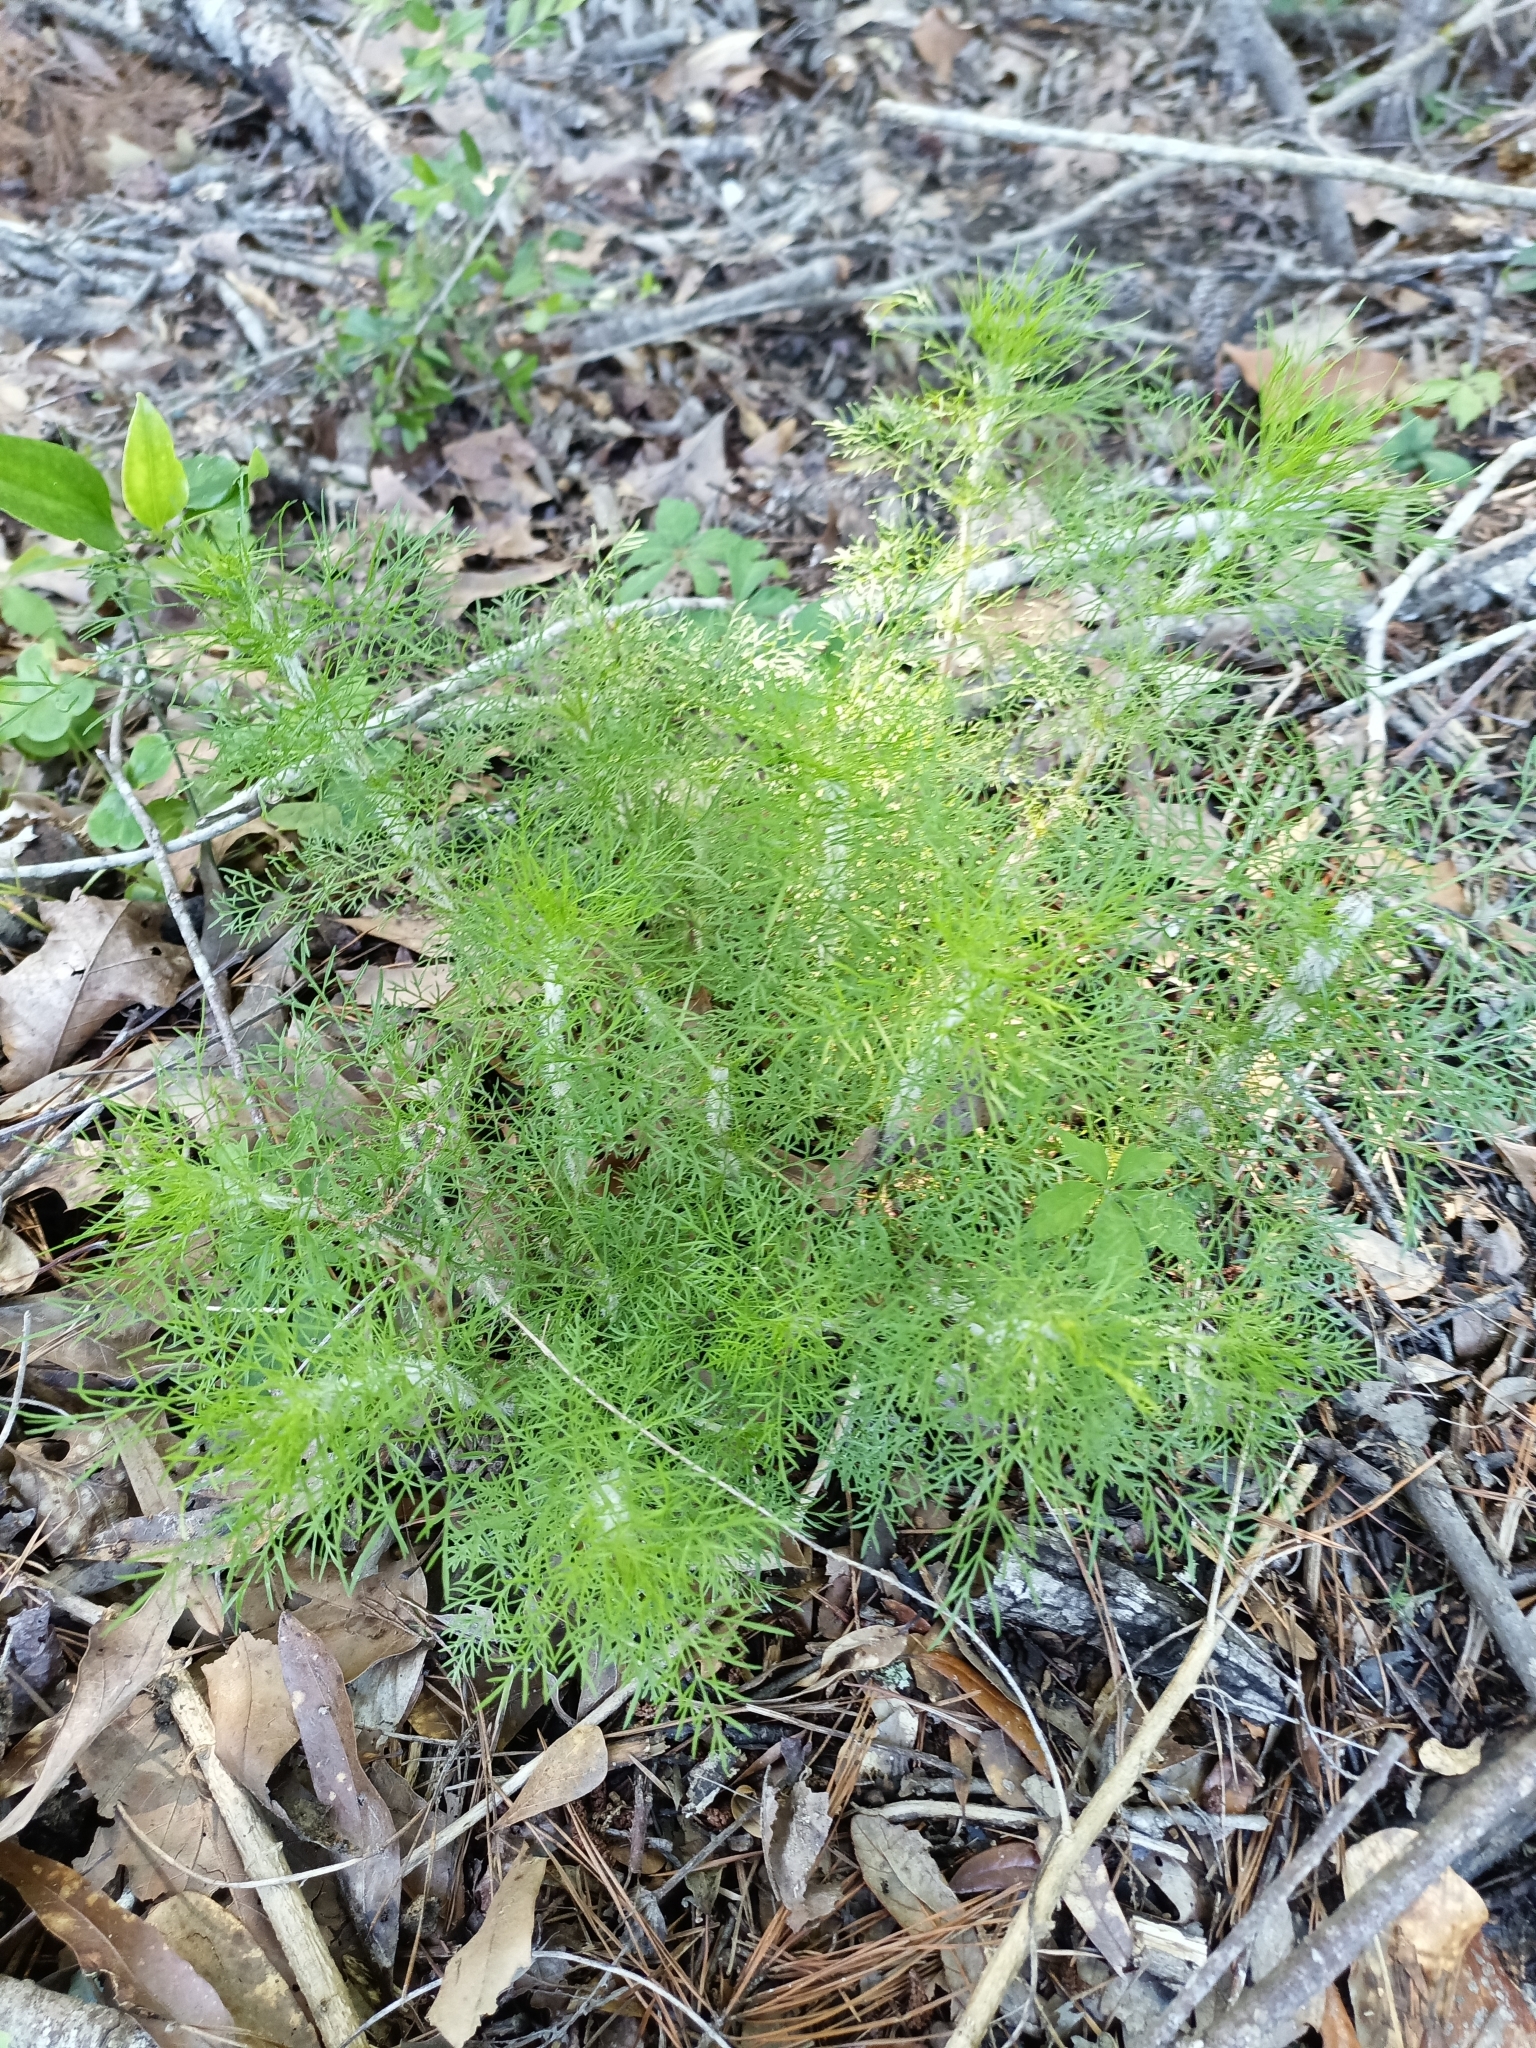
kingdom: Plantae
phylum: Tracheophyta
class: Magnoliopsida
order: Asterales
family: Asteraceae
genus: Eupatorium
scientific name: Eupatorium capillifolium
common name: Dog-fennel
